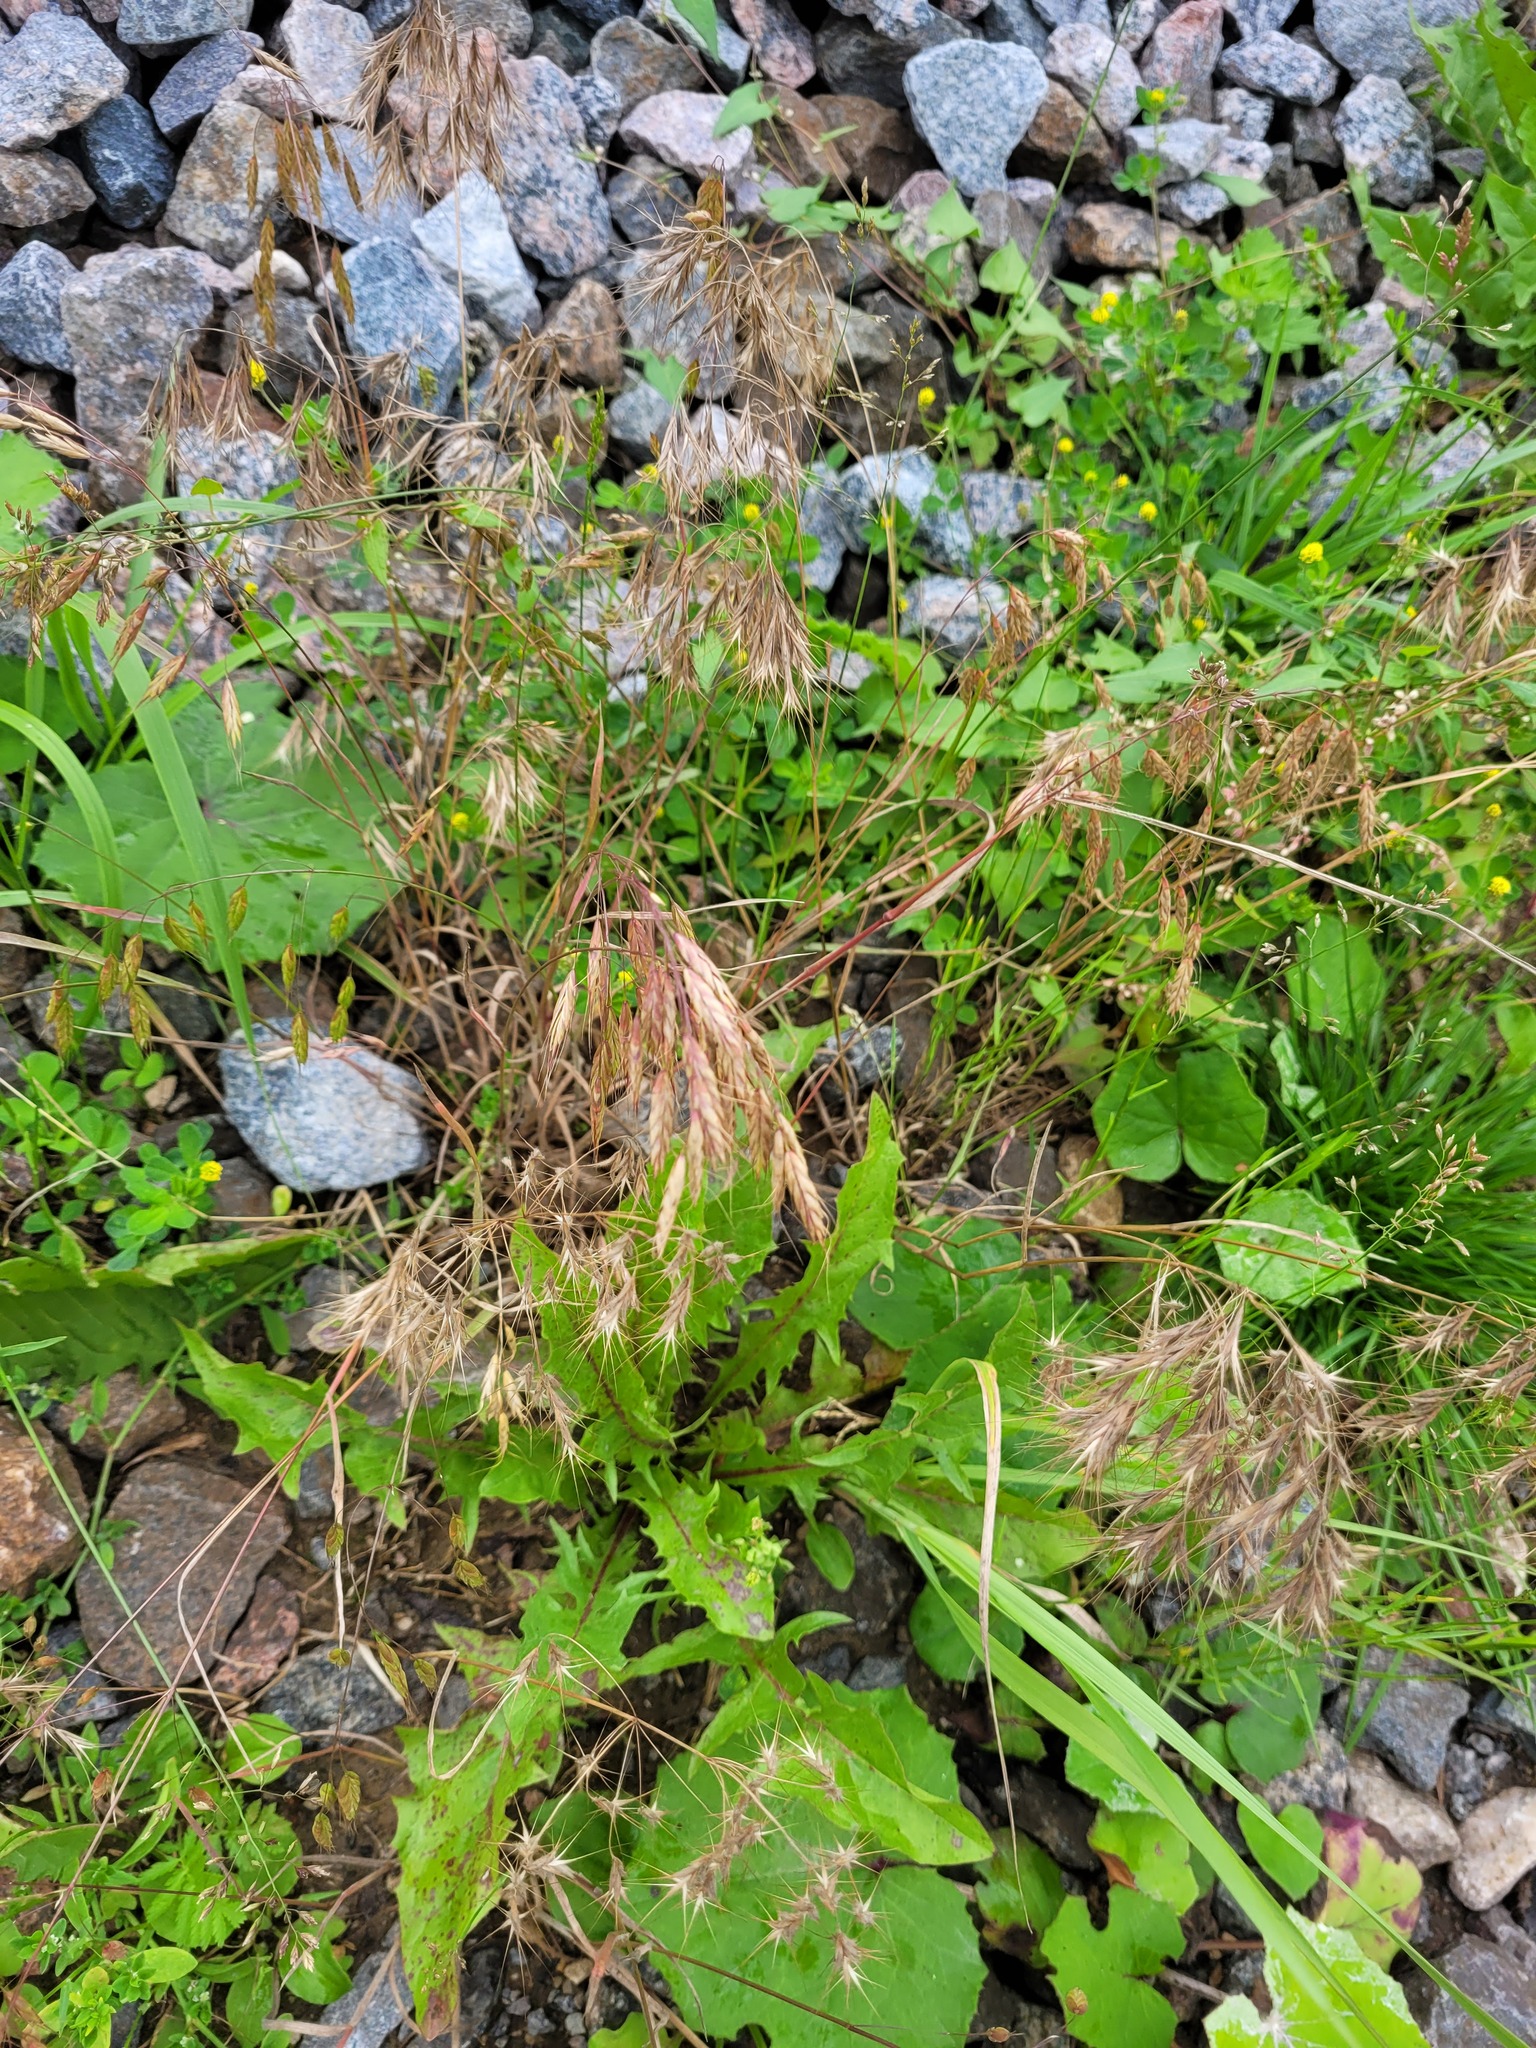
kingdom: Plantae
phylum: Tracheophyta
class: Liliopsida
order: Poales
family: Poaceae
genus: Bromus
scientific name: Bromus tectorum
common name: Cheatgrass
